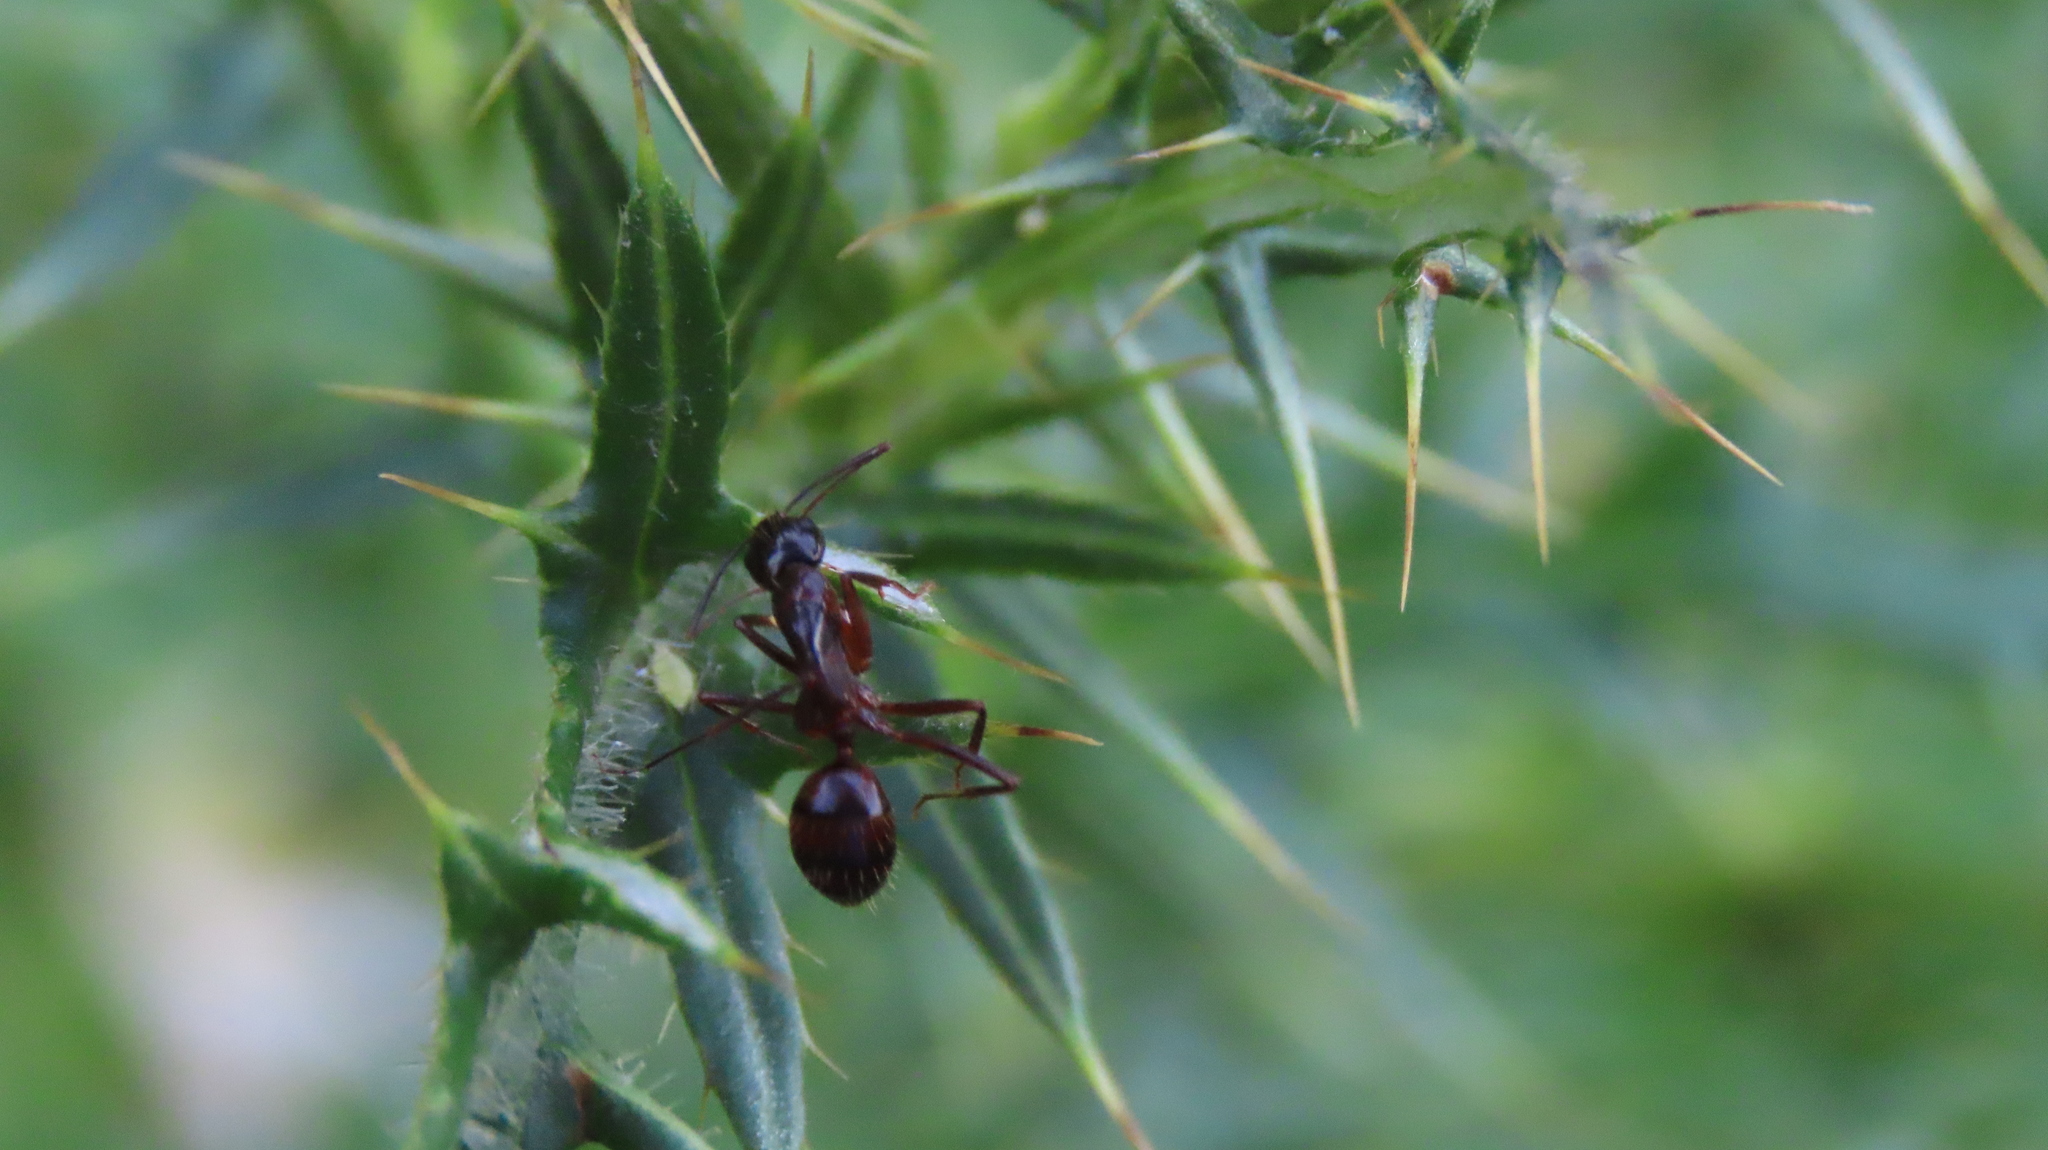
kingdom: Animalia
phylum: Arthropoda
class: Insecta
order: Hymenoptera
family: Formicidae
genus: Camponotus
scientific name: Camponotus americanus
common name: American carpenter ant
